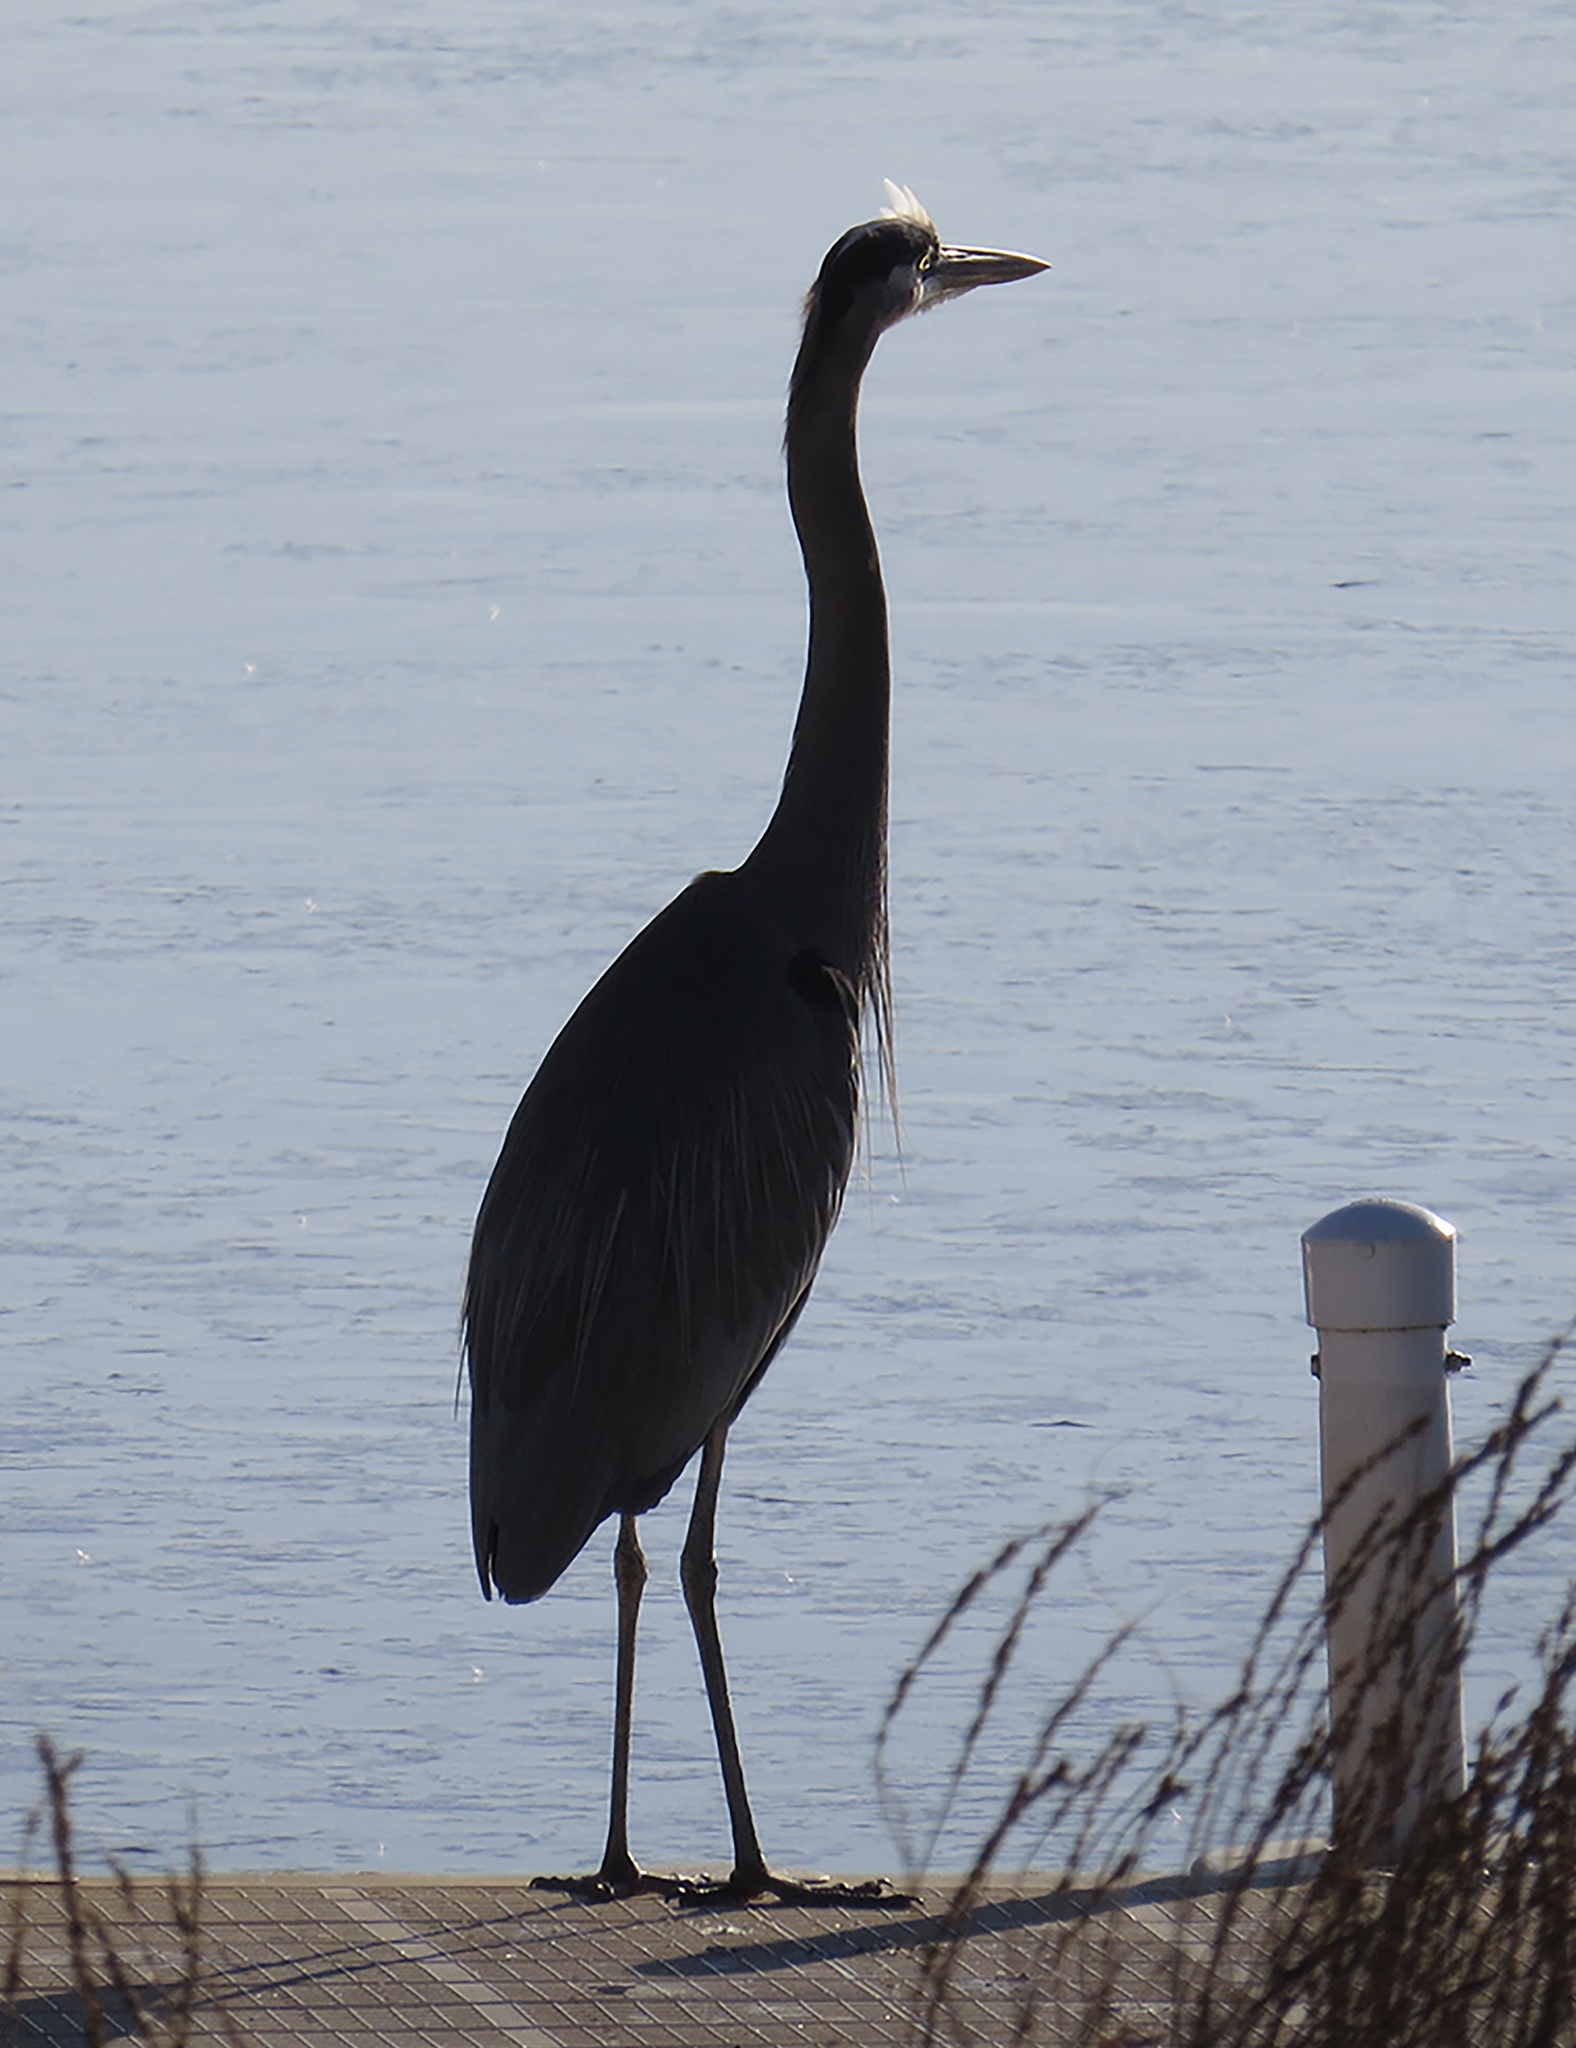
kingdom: Animalia
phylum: Chordata
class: Aves
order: Pelecaniformes
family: Ardeidae
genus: Ardea
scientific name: Ardea herodias
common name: Great blue heron
